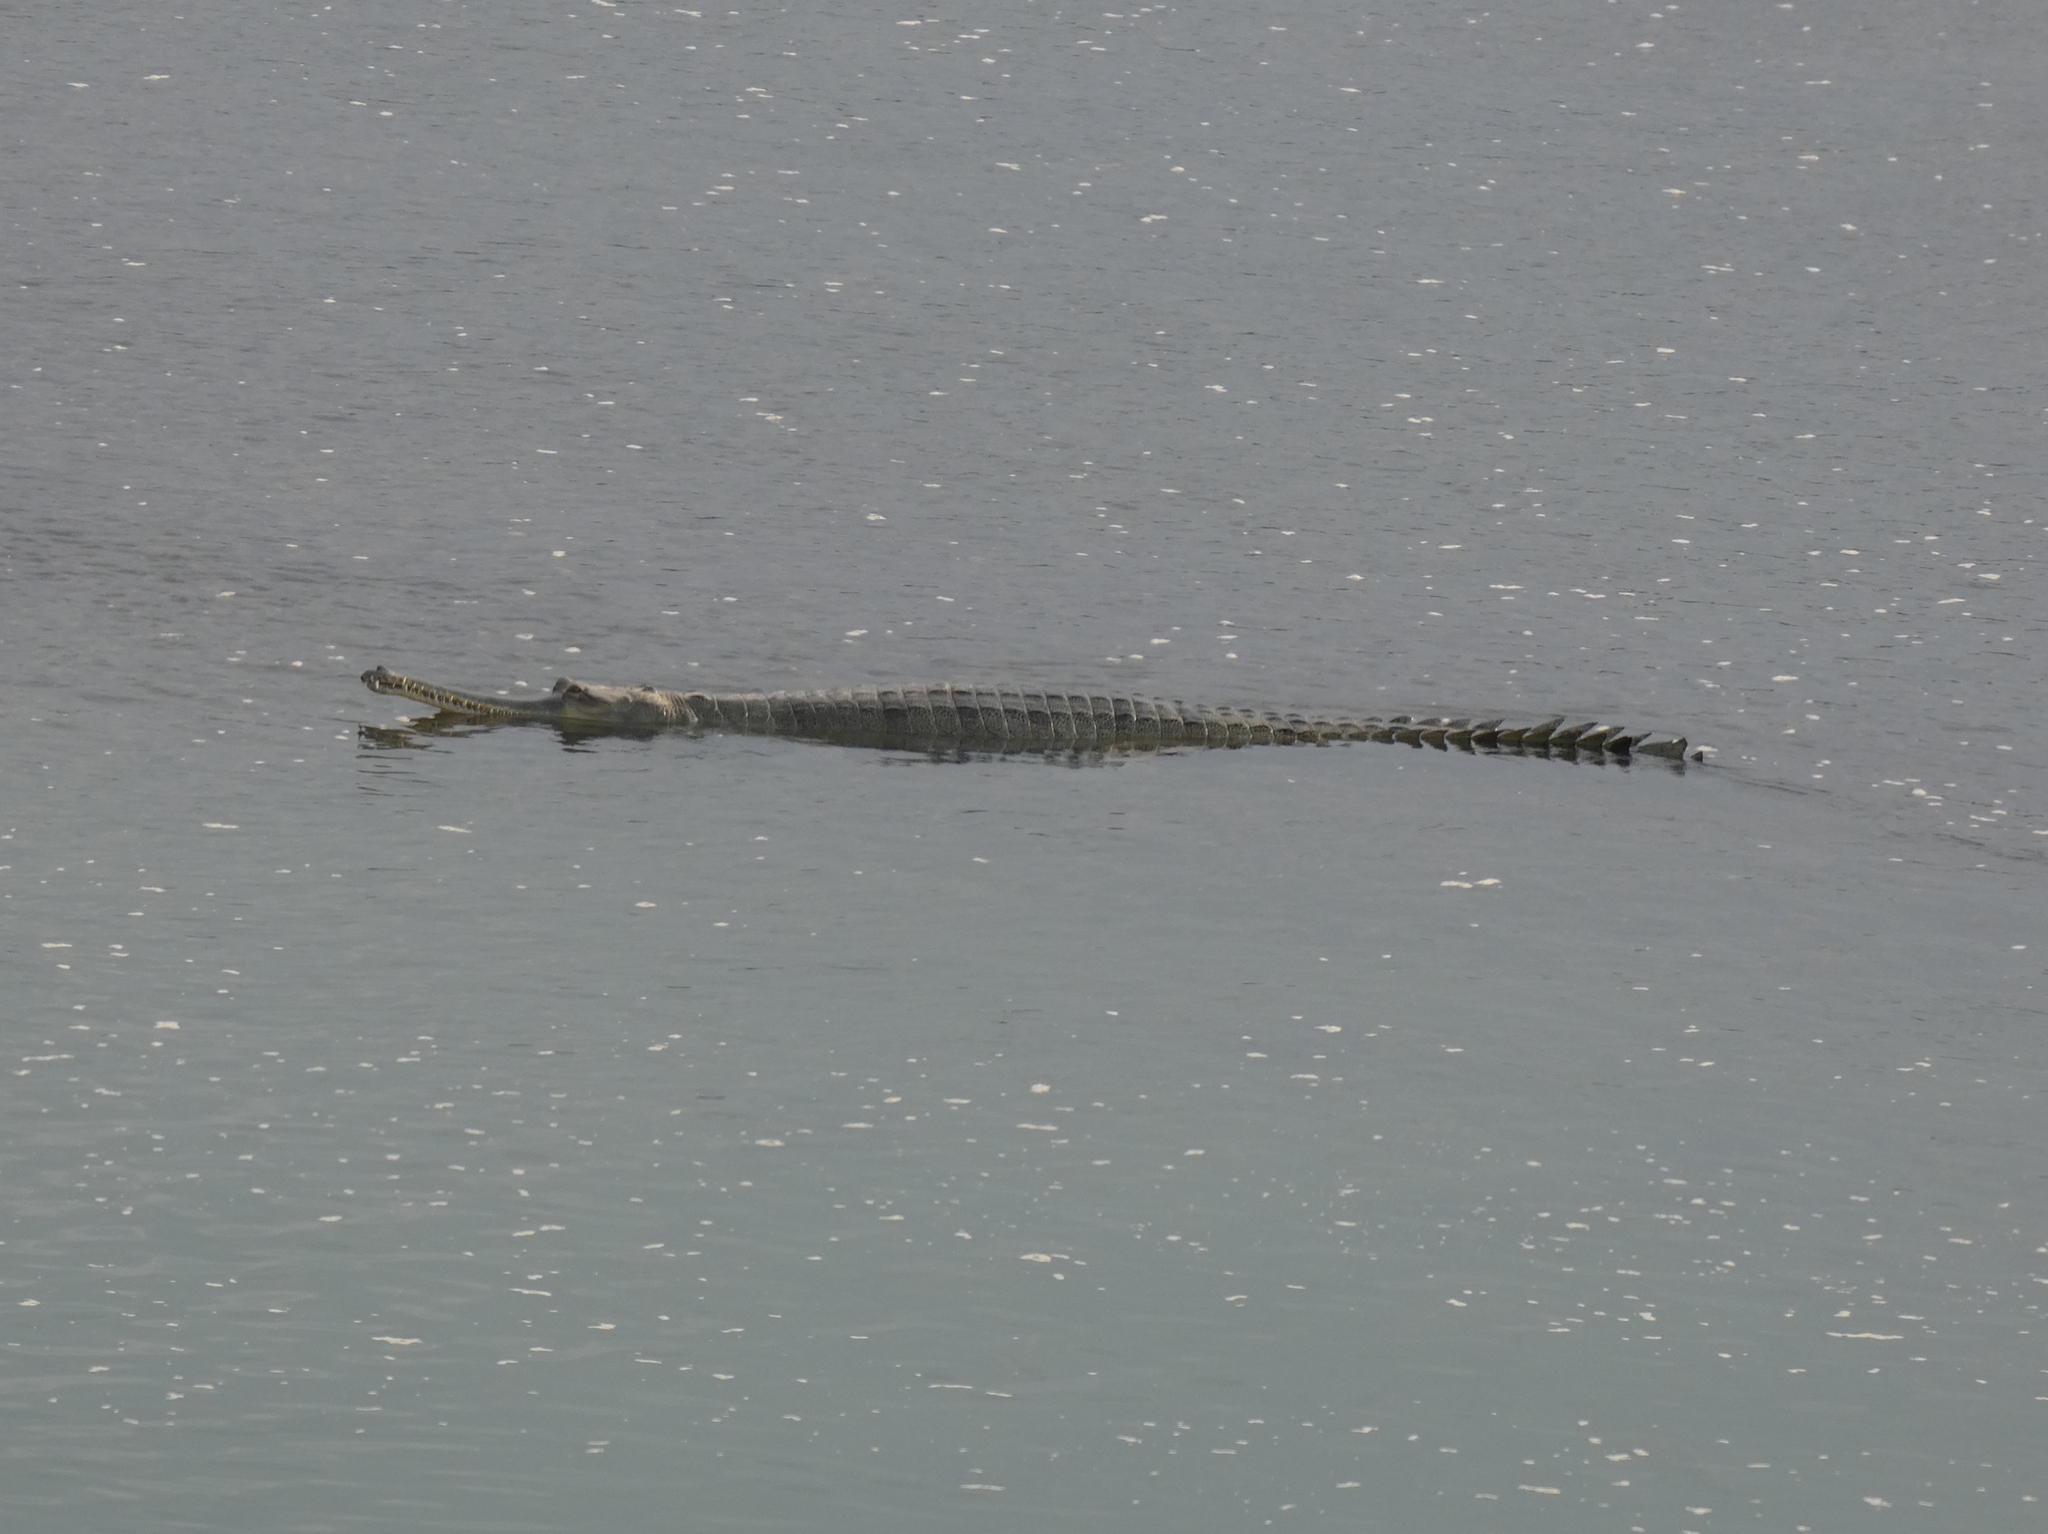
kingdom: Animalia
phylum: Chordata
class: Crocodylia
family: Gavialidae
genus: Gavialis
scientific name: Gavialis gangeticus
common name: Gharial
